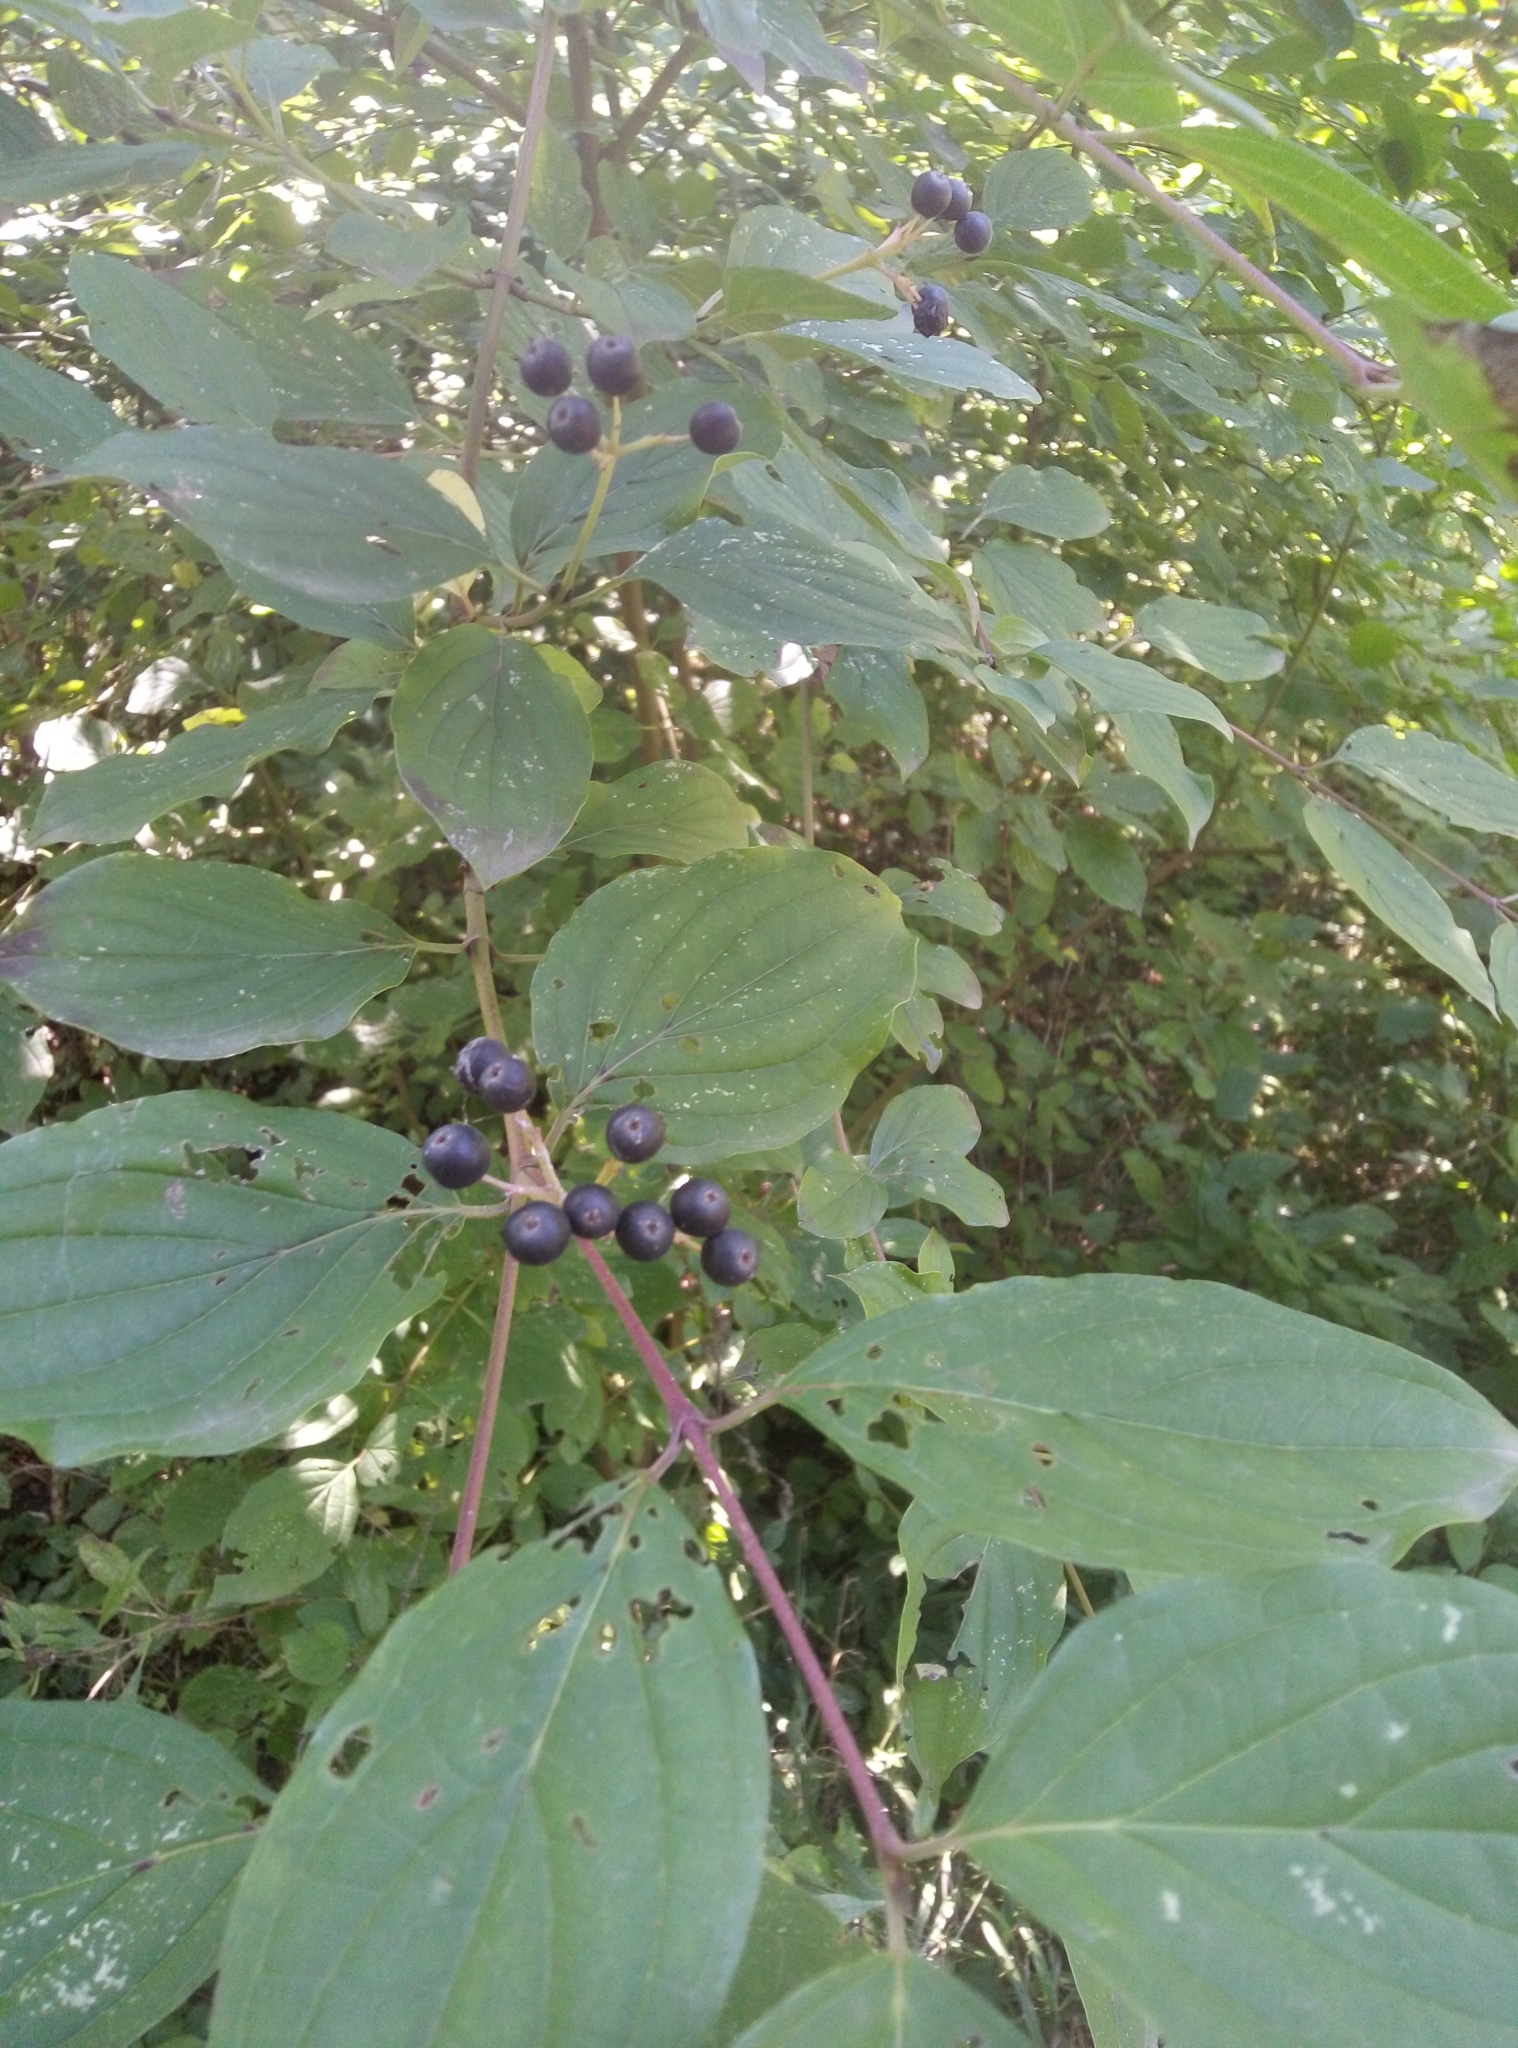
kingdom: Plantae
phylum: Tracheophyta
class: Magnoliopsida
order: Cornales
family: Cornaceae
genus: Cornus
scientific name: Cornus sanguinea
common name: Dogwood
